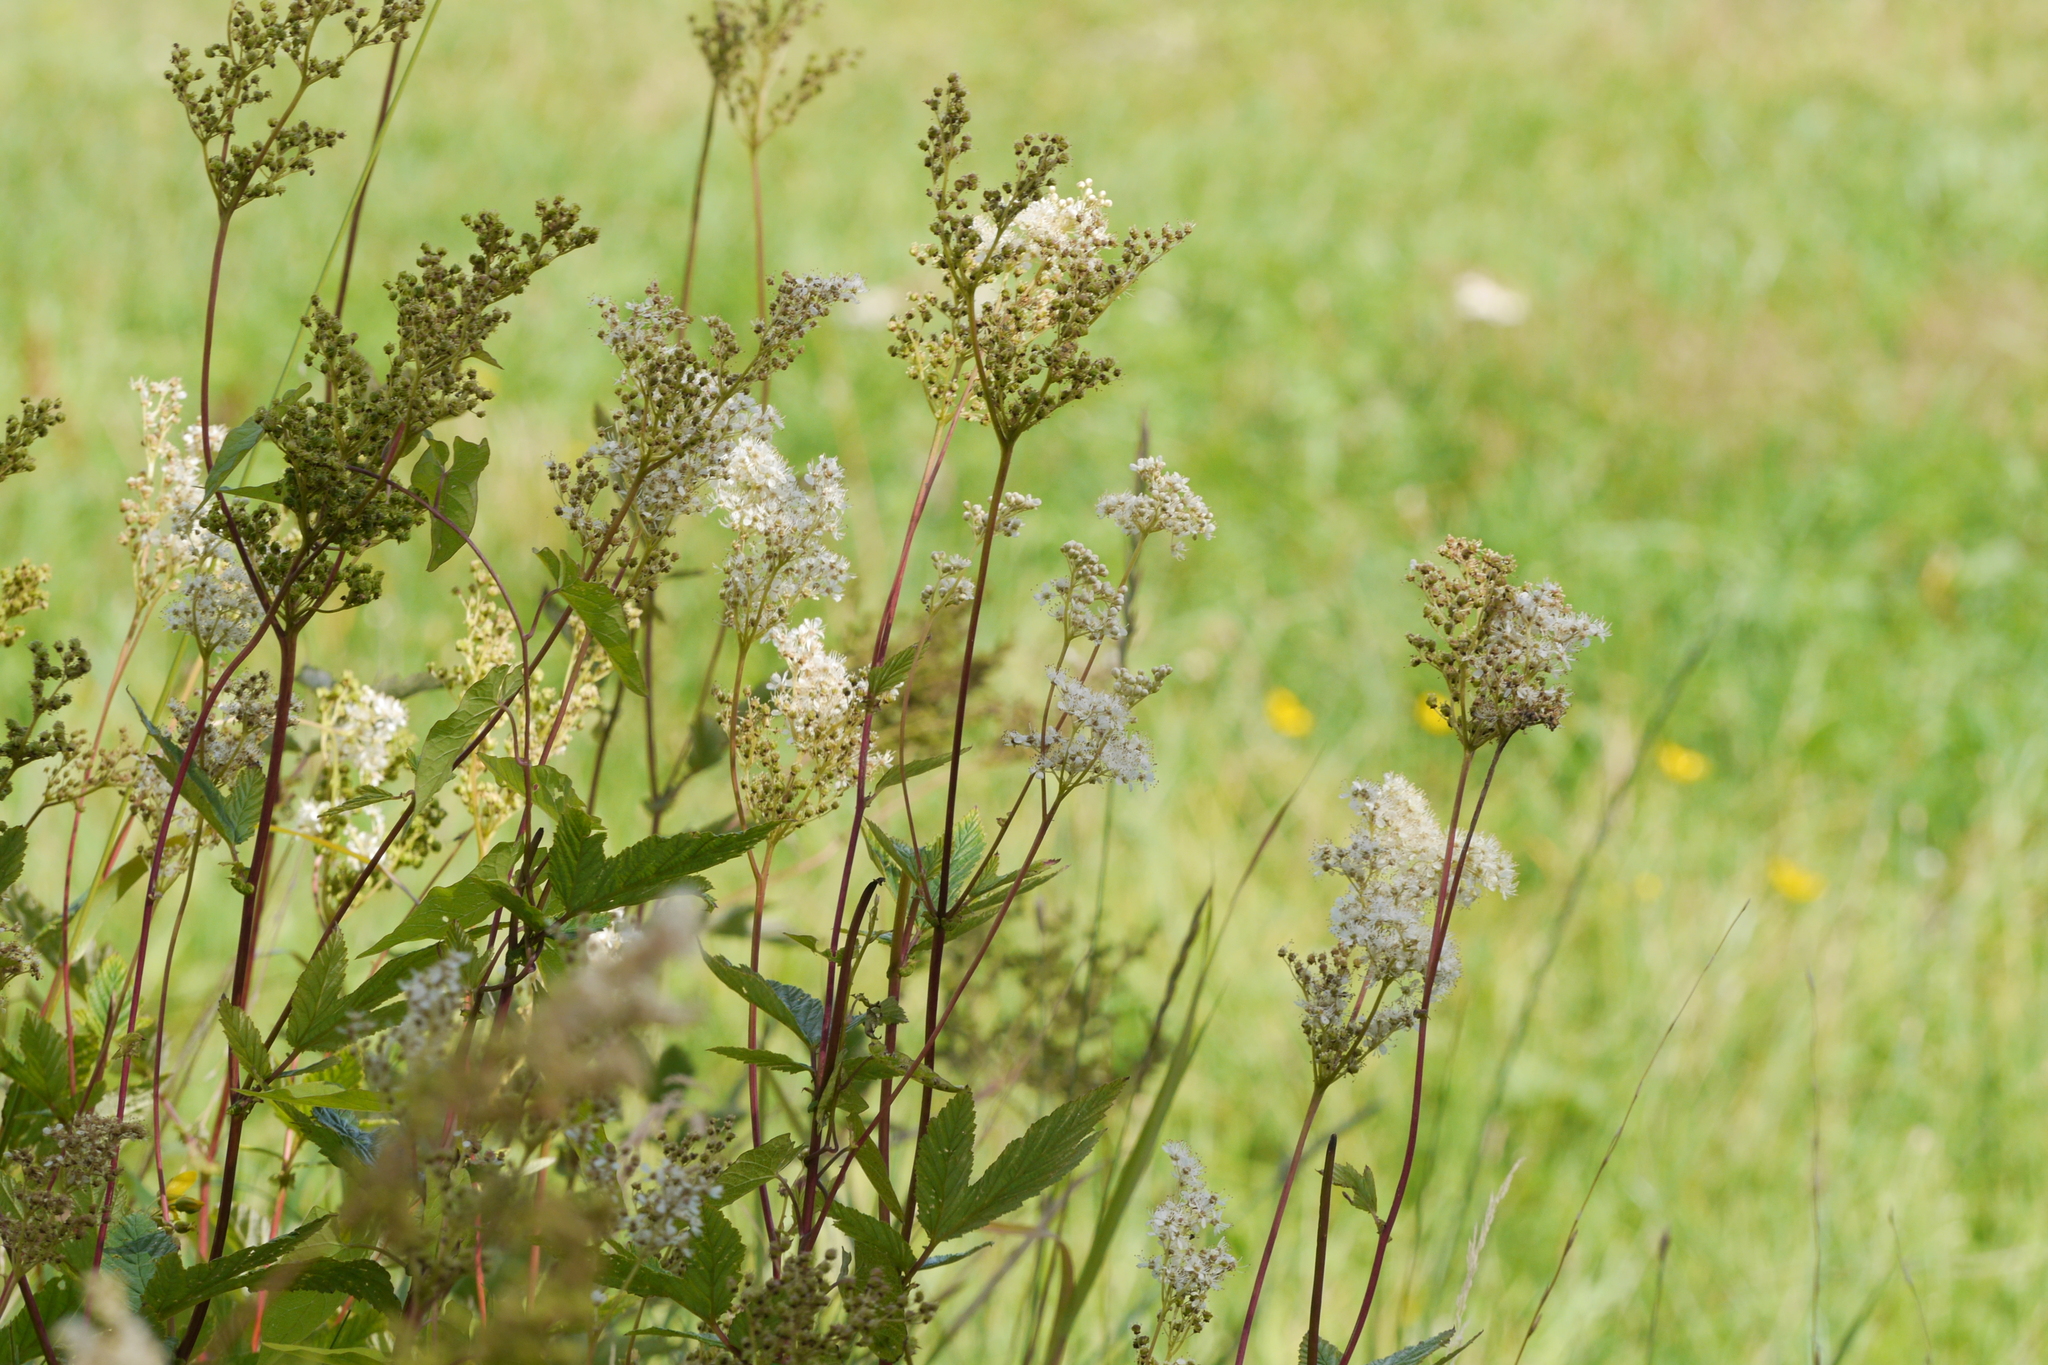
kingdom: Plantae
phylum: Tracheophyta
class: Magnoliopsida
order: Rosales
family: Rosaceae
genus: Filipendula
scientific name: Filipendula ulmaria
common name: Meadowsweet
